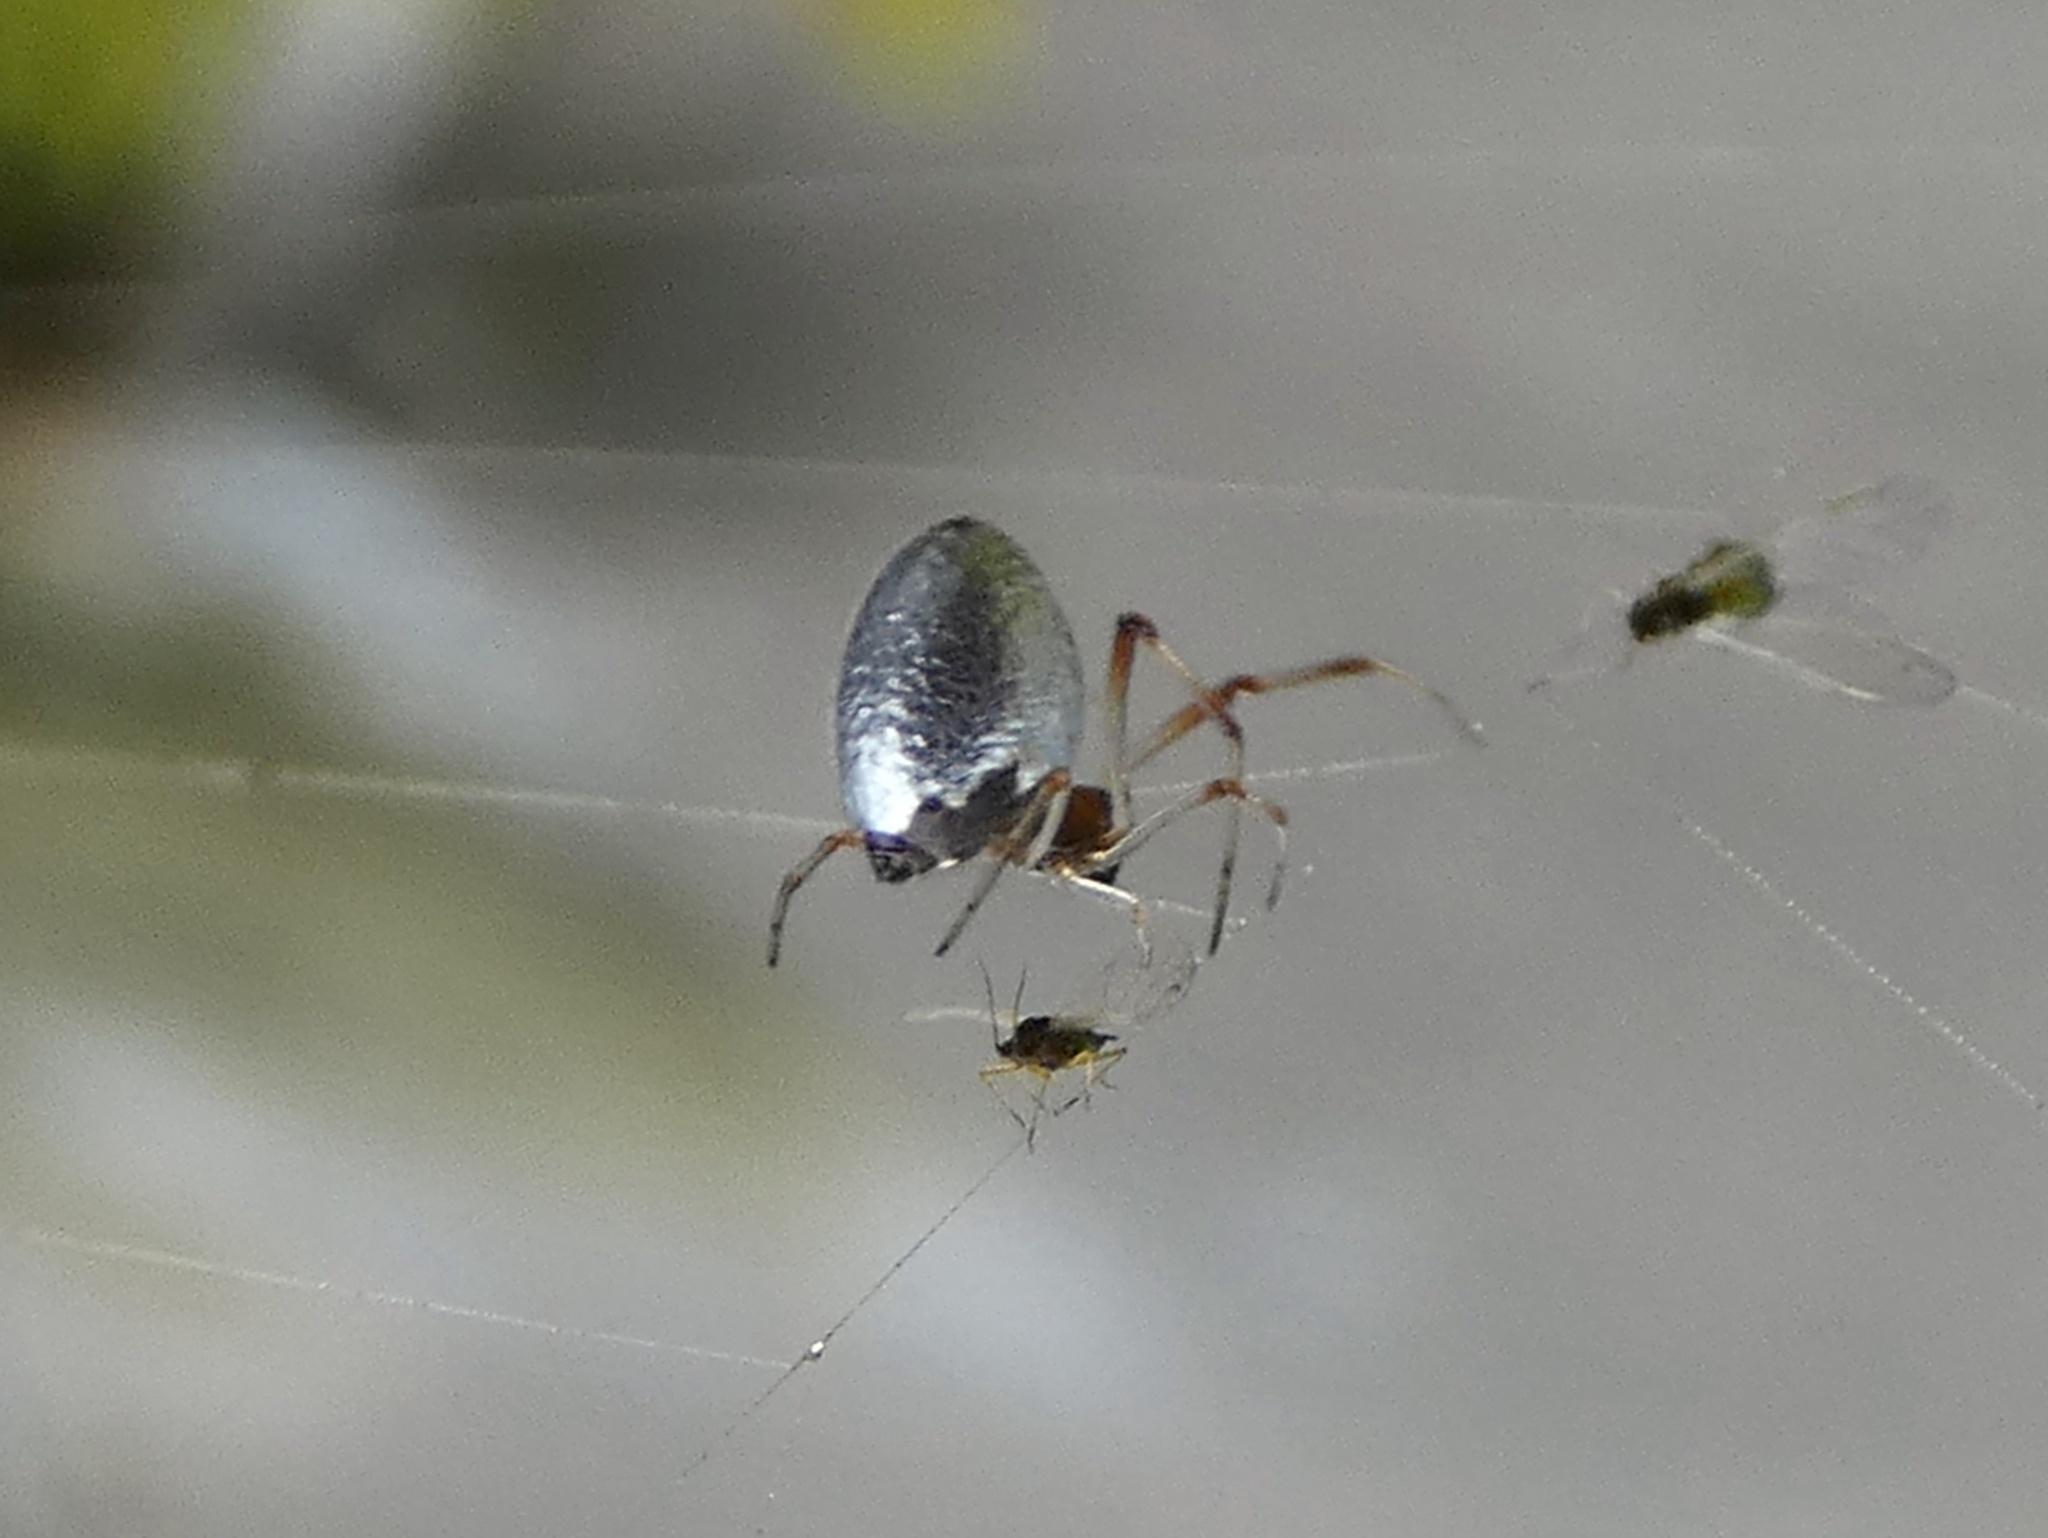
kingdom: Animalia
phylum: Arthropoda
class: Arachnida
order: Araneae
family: Theridiidae
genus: Argyrodes
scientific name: Argyrodes argentatus
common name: Dewdrop spider
